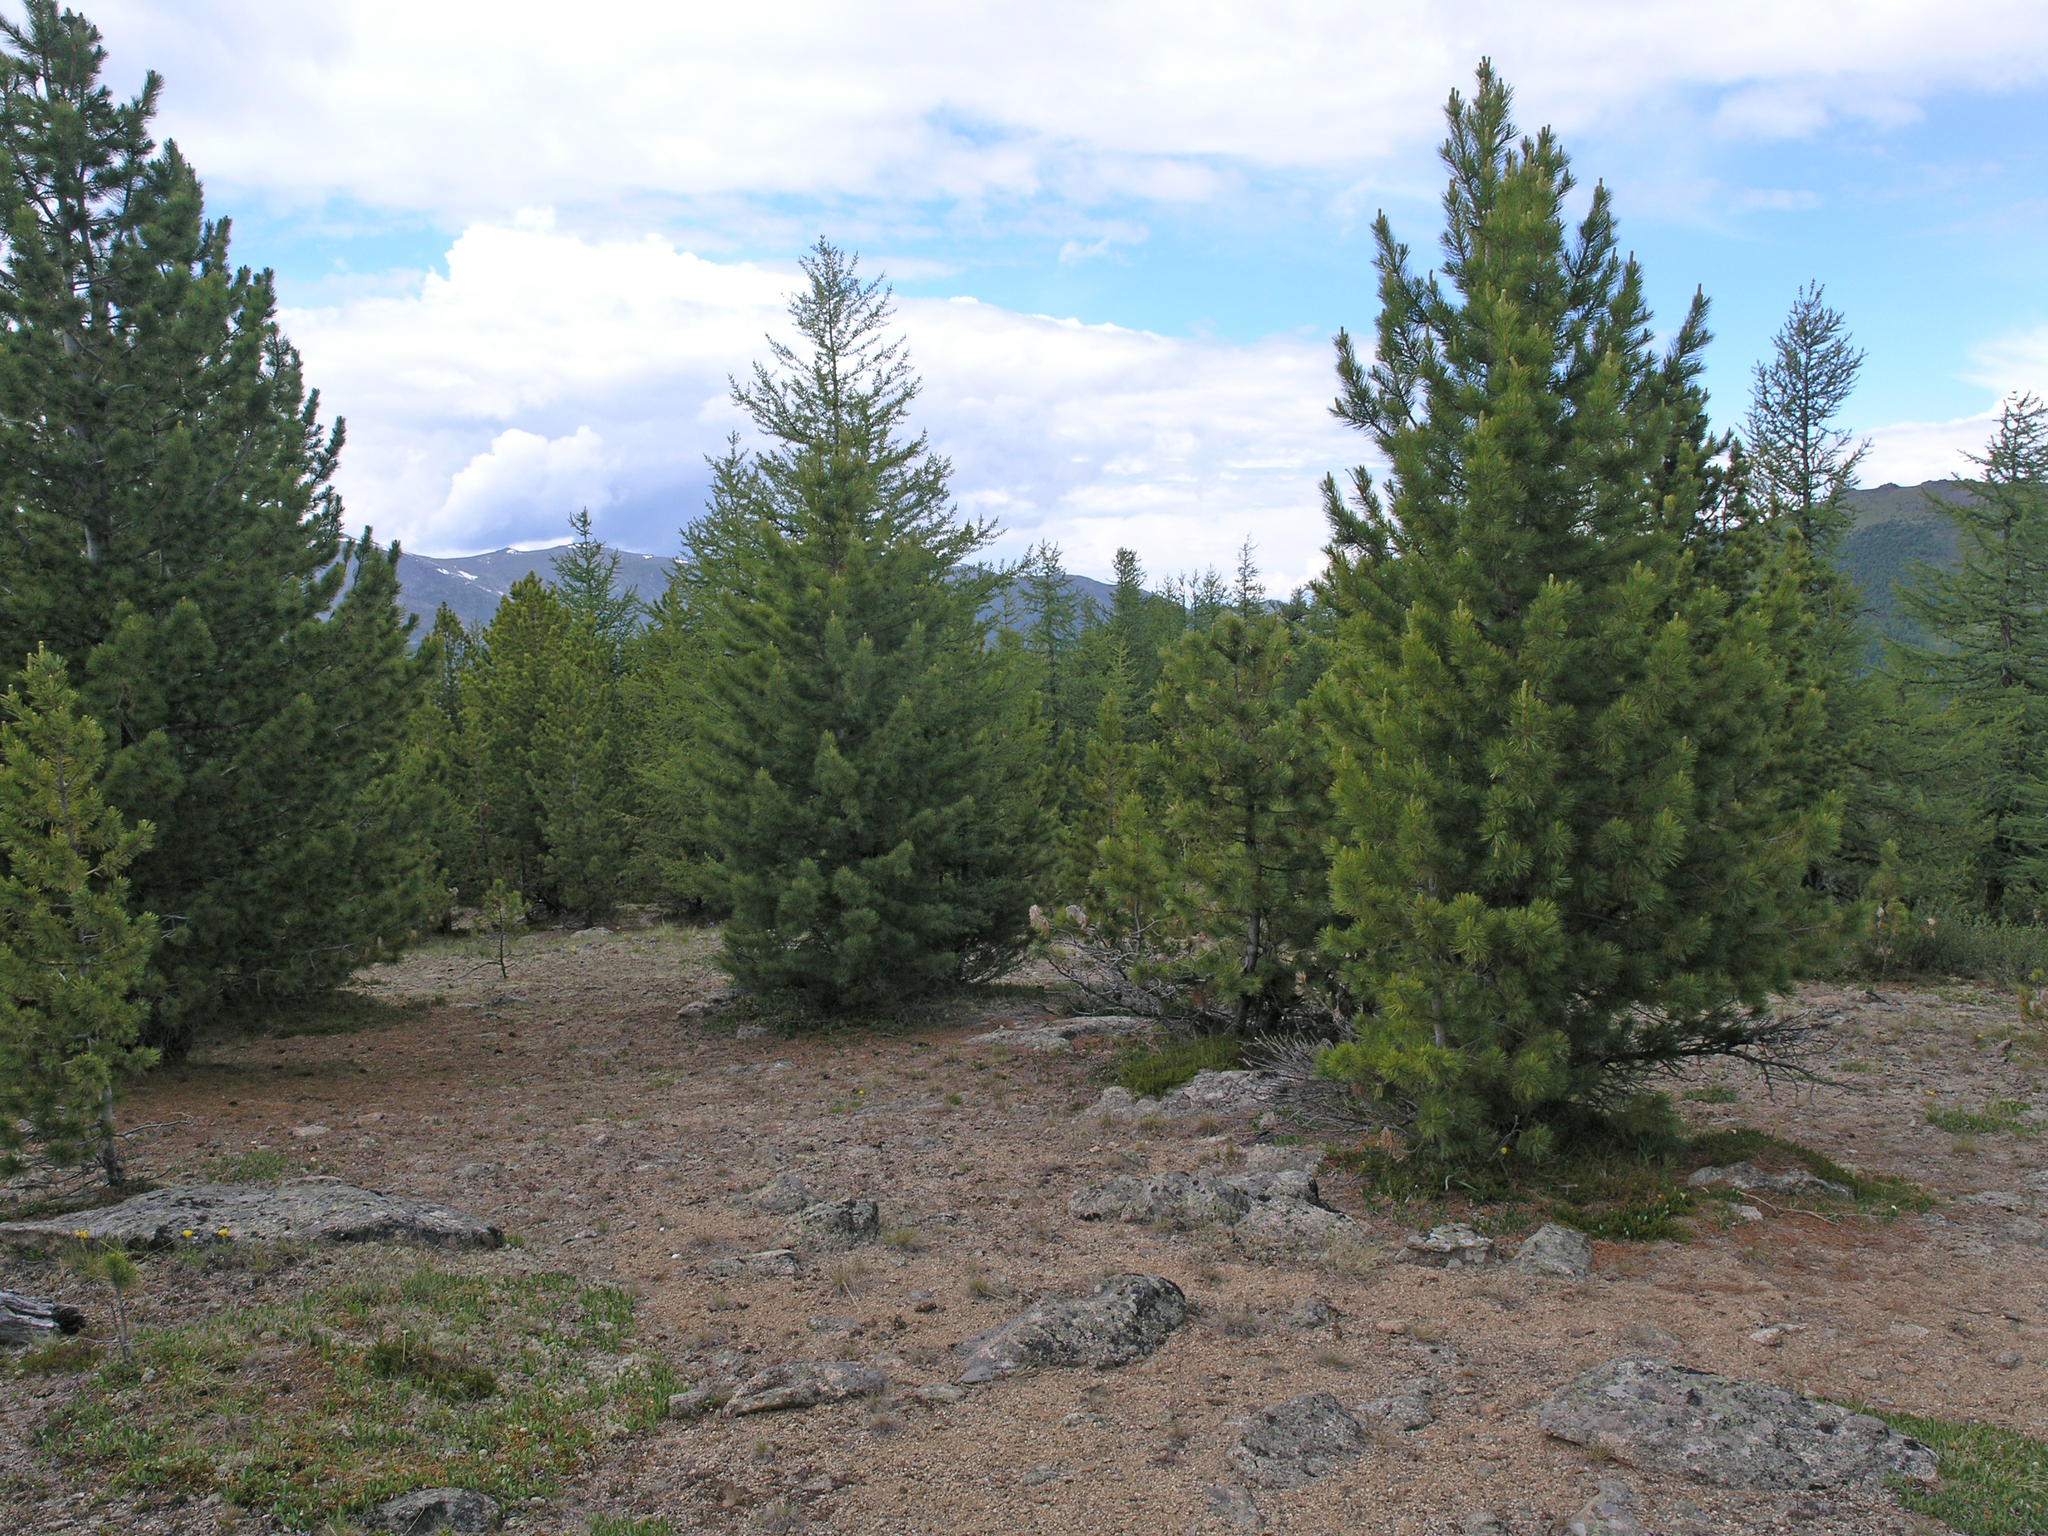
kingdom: Plantae
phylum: Tracheophyta
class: Pinopsida
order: Pinales
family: Pinaceae
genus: Pinus
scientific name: Pinus sibirica
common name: Siberian pine
